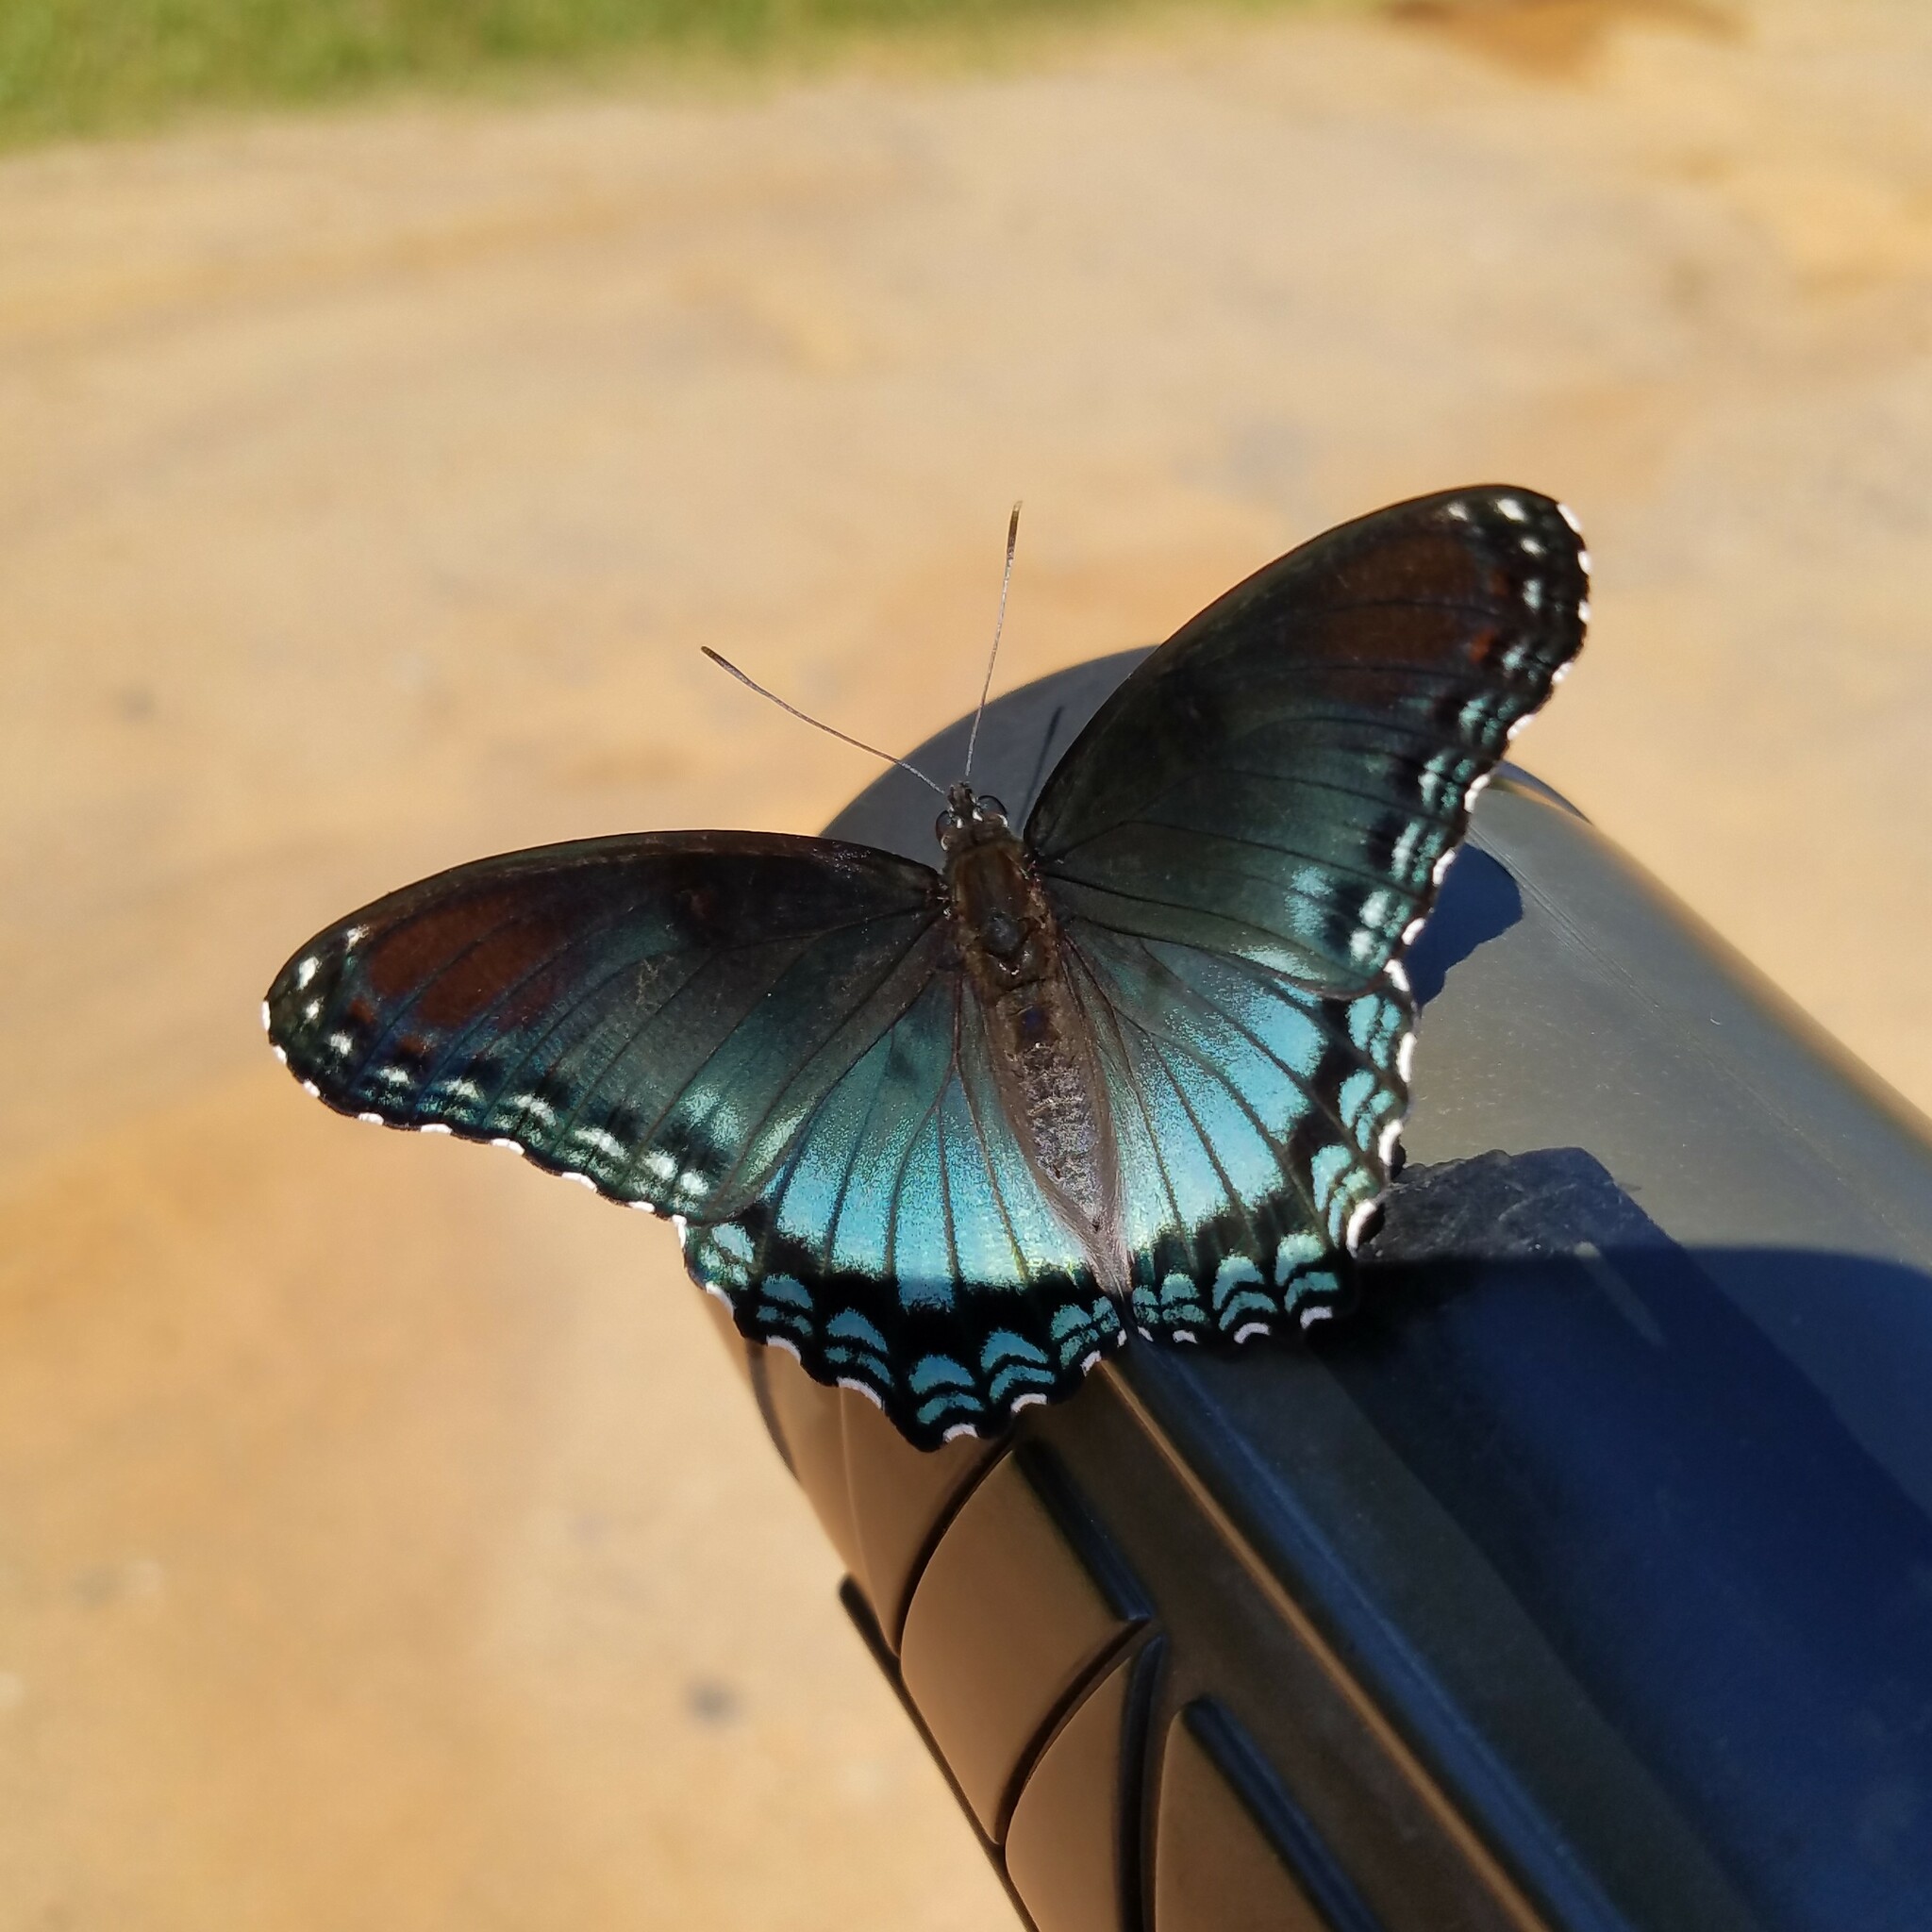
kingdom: Animalia
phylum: Arthropoda
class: Insecta
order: Lepidoptera
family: Nymphalidae
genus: Limenitis
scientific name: Limenitis arthemis
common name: Red-spotted admiral
